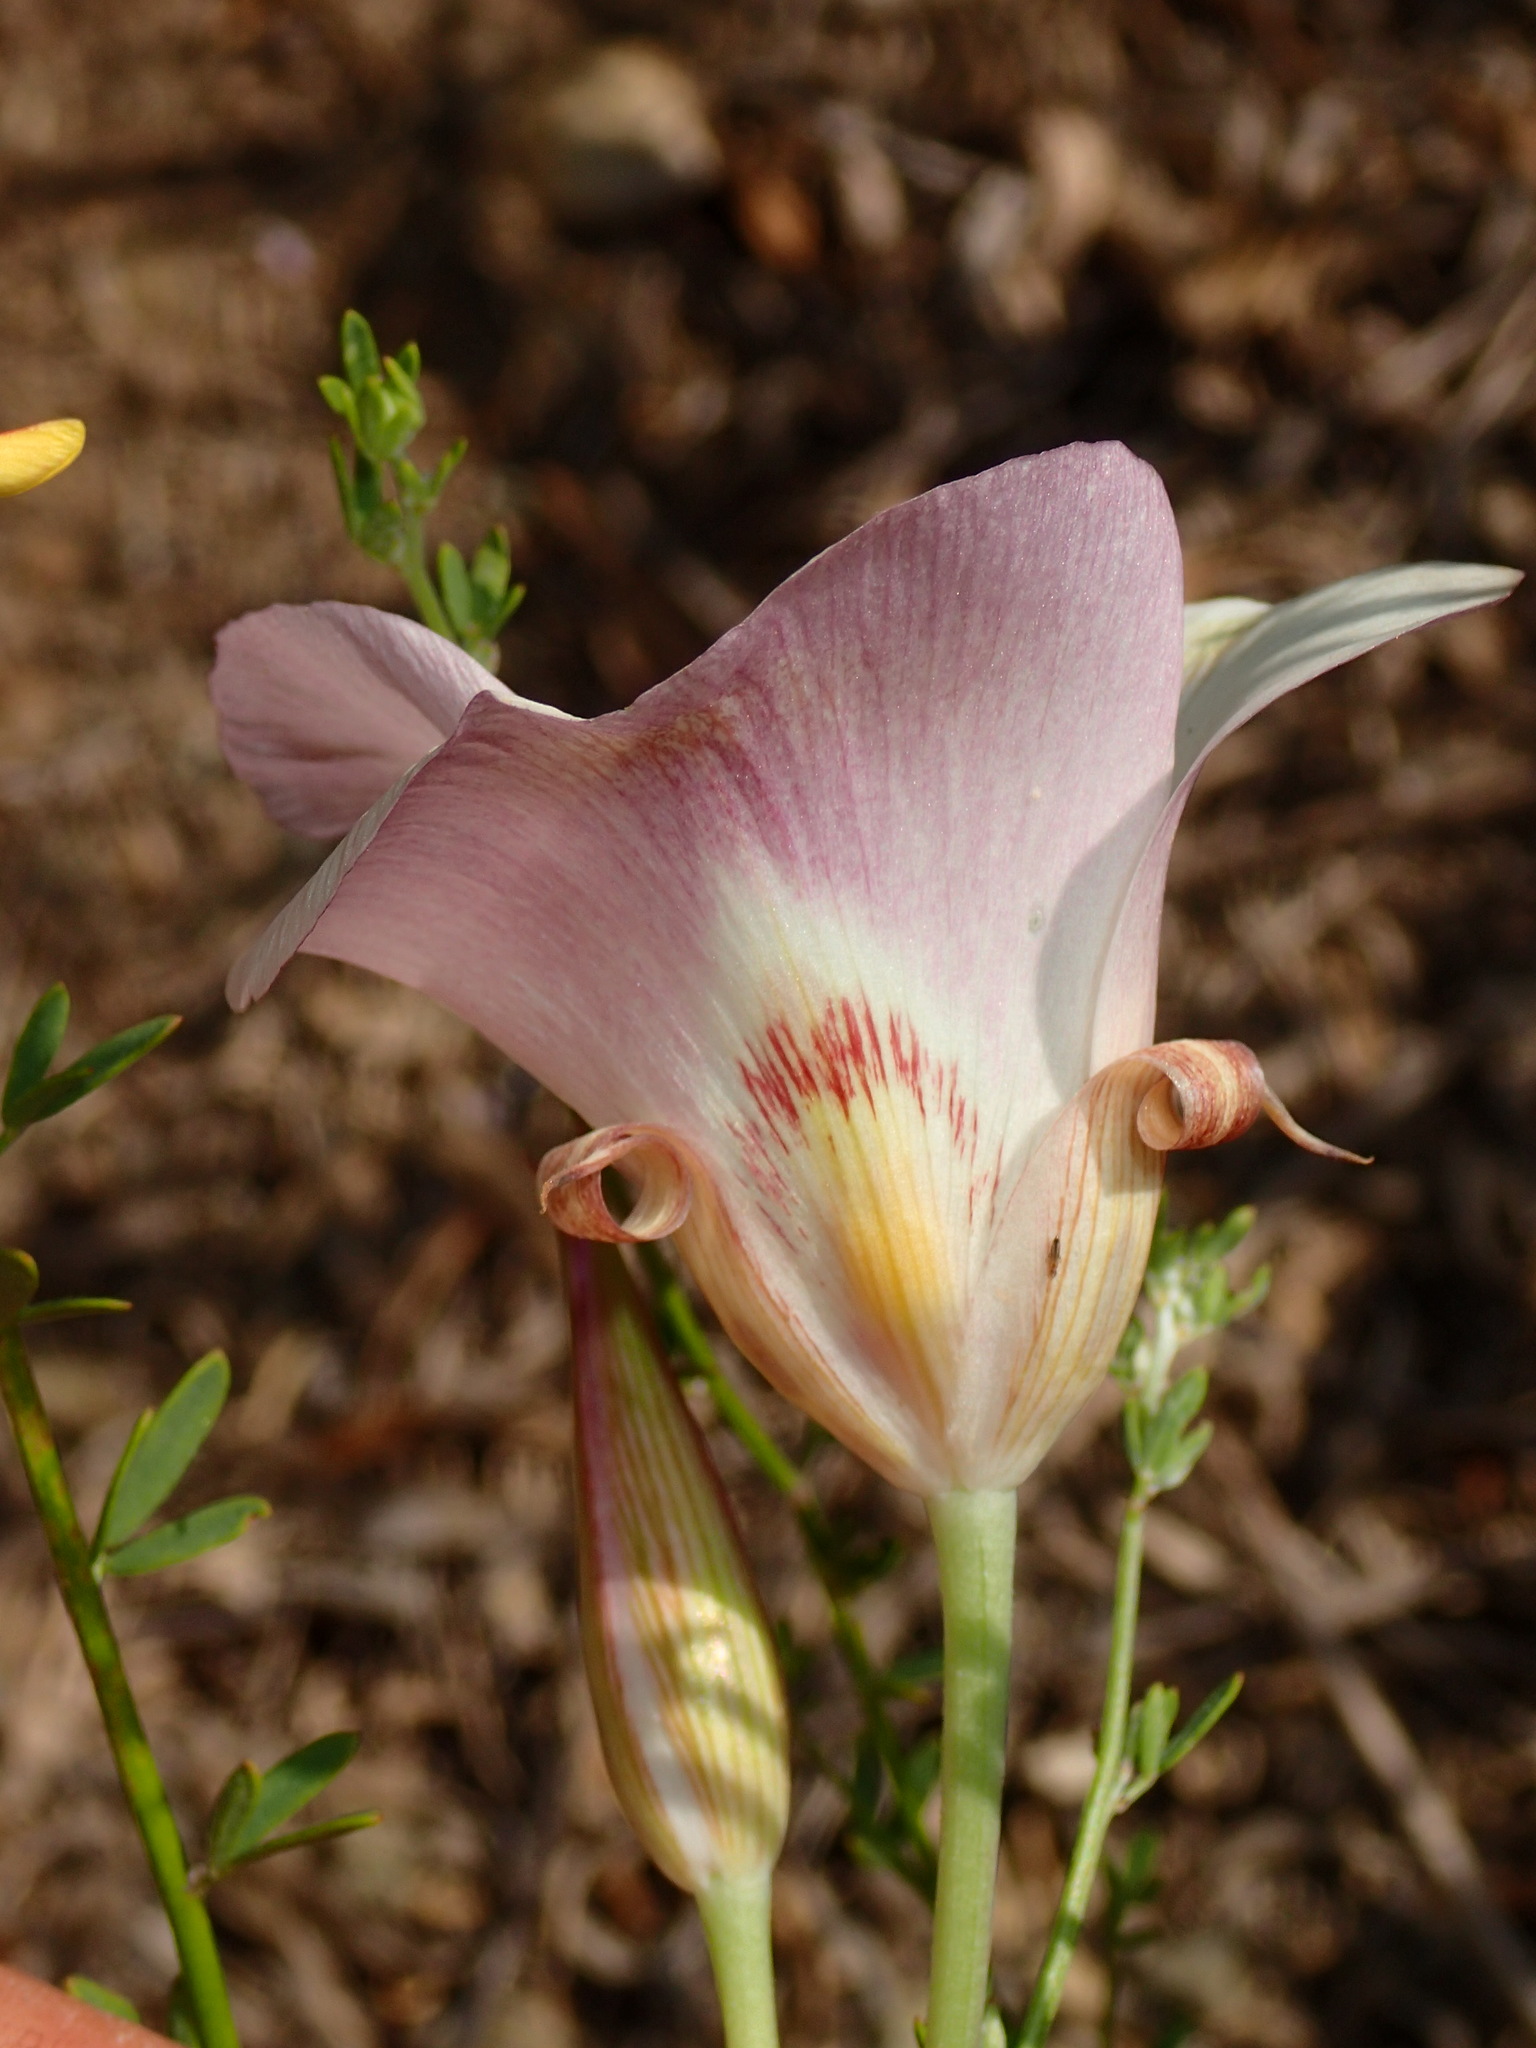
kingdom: Plantae
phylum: Tracheophyta
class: Liliopsida
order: Liliales
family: Liliaceae
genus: Calochortus
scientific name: Calochortus venustus
